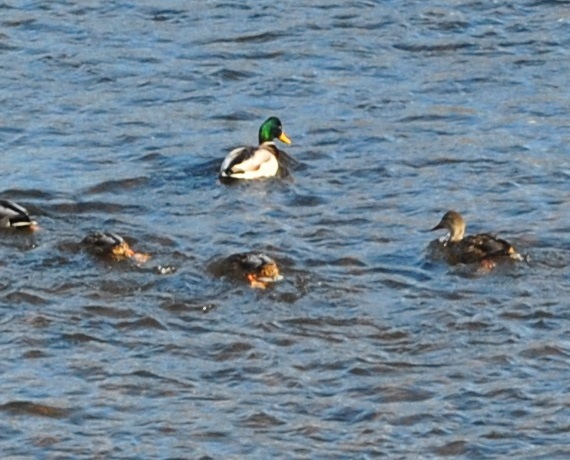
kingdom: Animalia
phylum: Chordata
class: Aves
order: Anseriformes
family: Anatidae
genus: Anas
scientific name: Anas platyrhynchos
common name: Mallard
